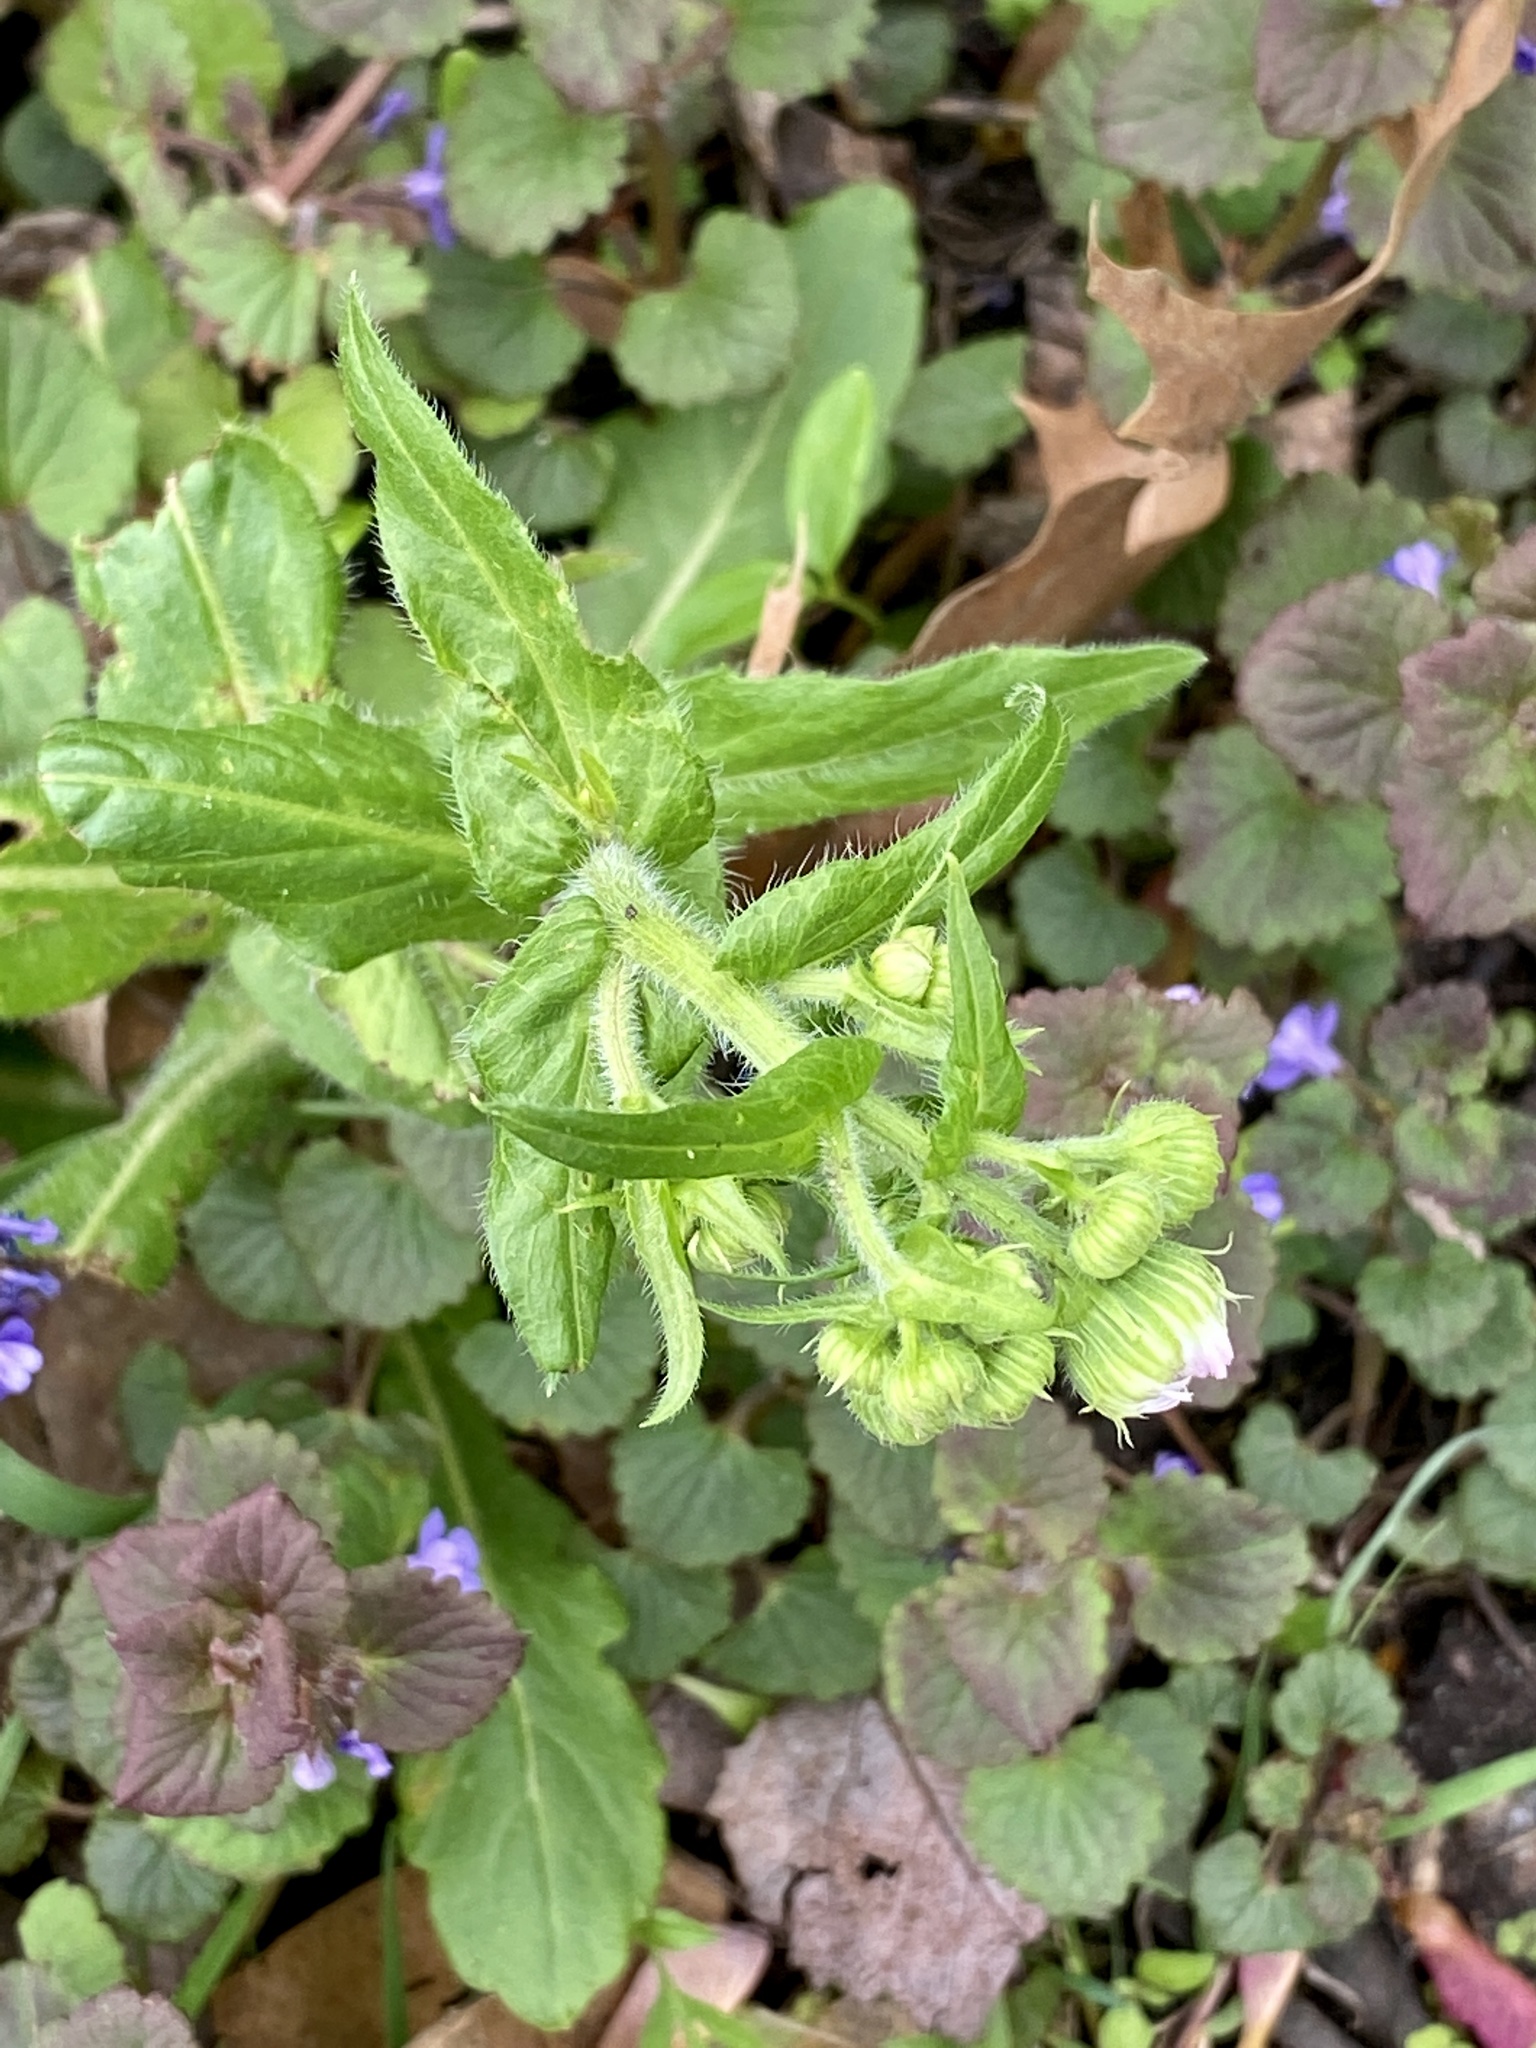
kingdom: Plantae
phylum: Tracheophyta
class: Magnoliopsida
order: Asterales
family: Asteraceae
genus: Erigeron
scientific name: Erigeron philadelphicus
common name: Robin's-plantain
